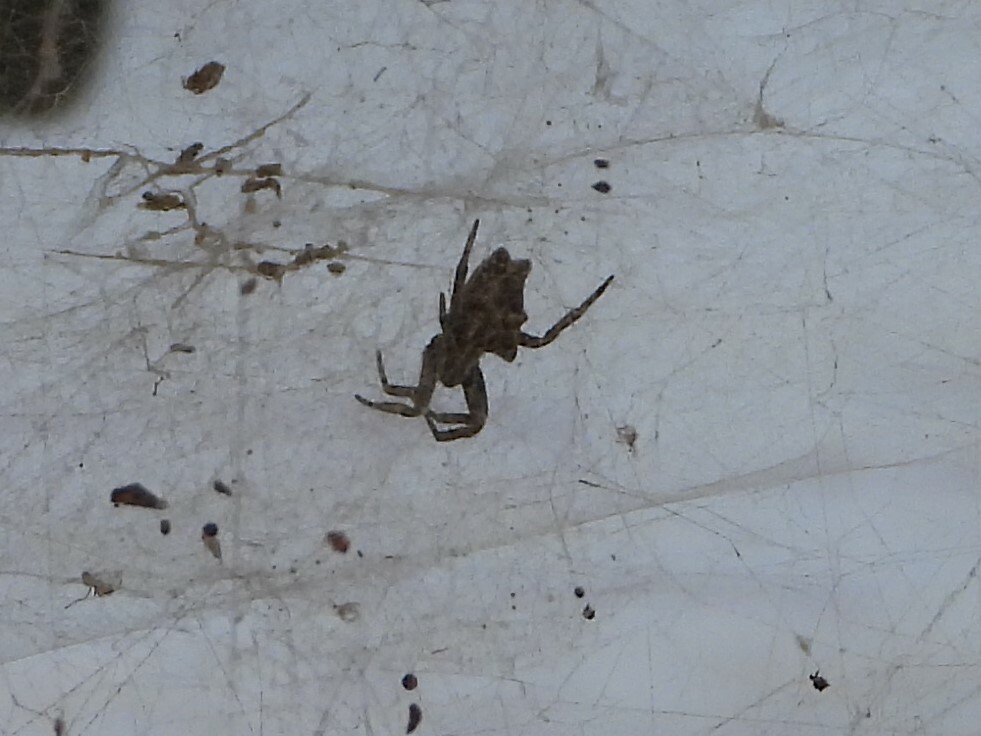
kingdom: Animalia
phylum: Arthropoda
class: Arachnida
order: Araneae
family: Araneidae
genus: Cyrtophora
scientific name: Cyrtophora citricola
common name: Orb weavers
